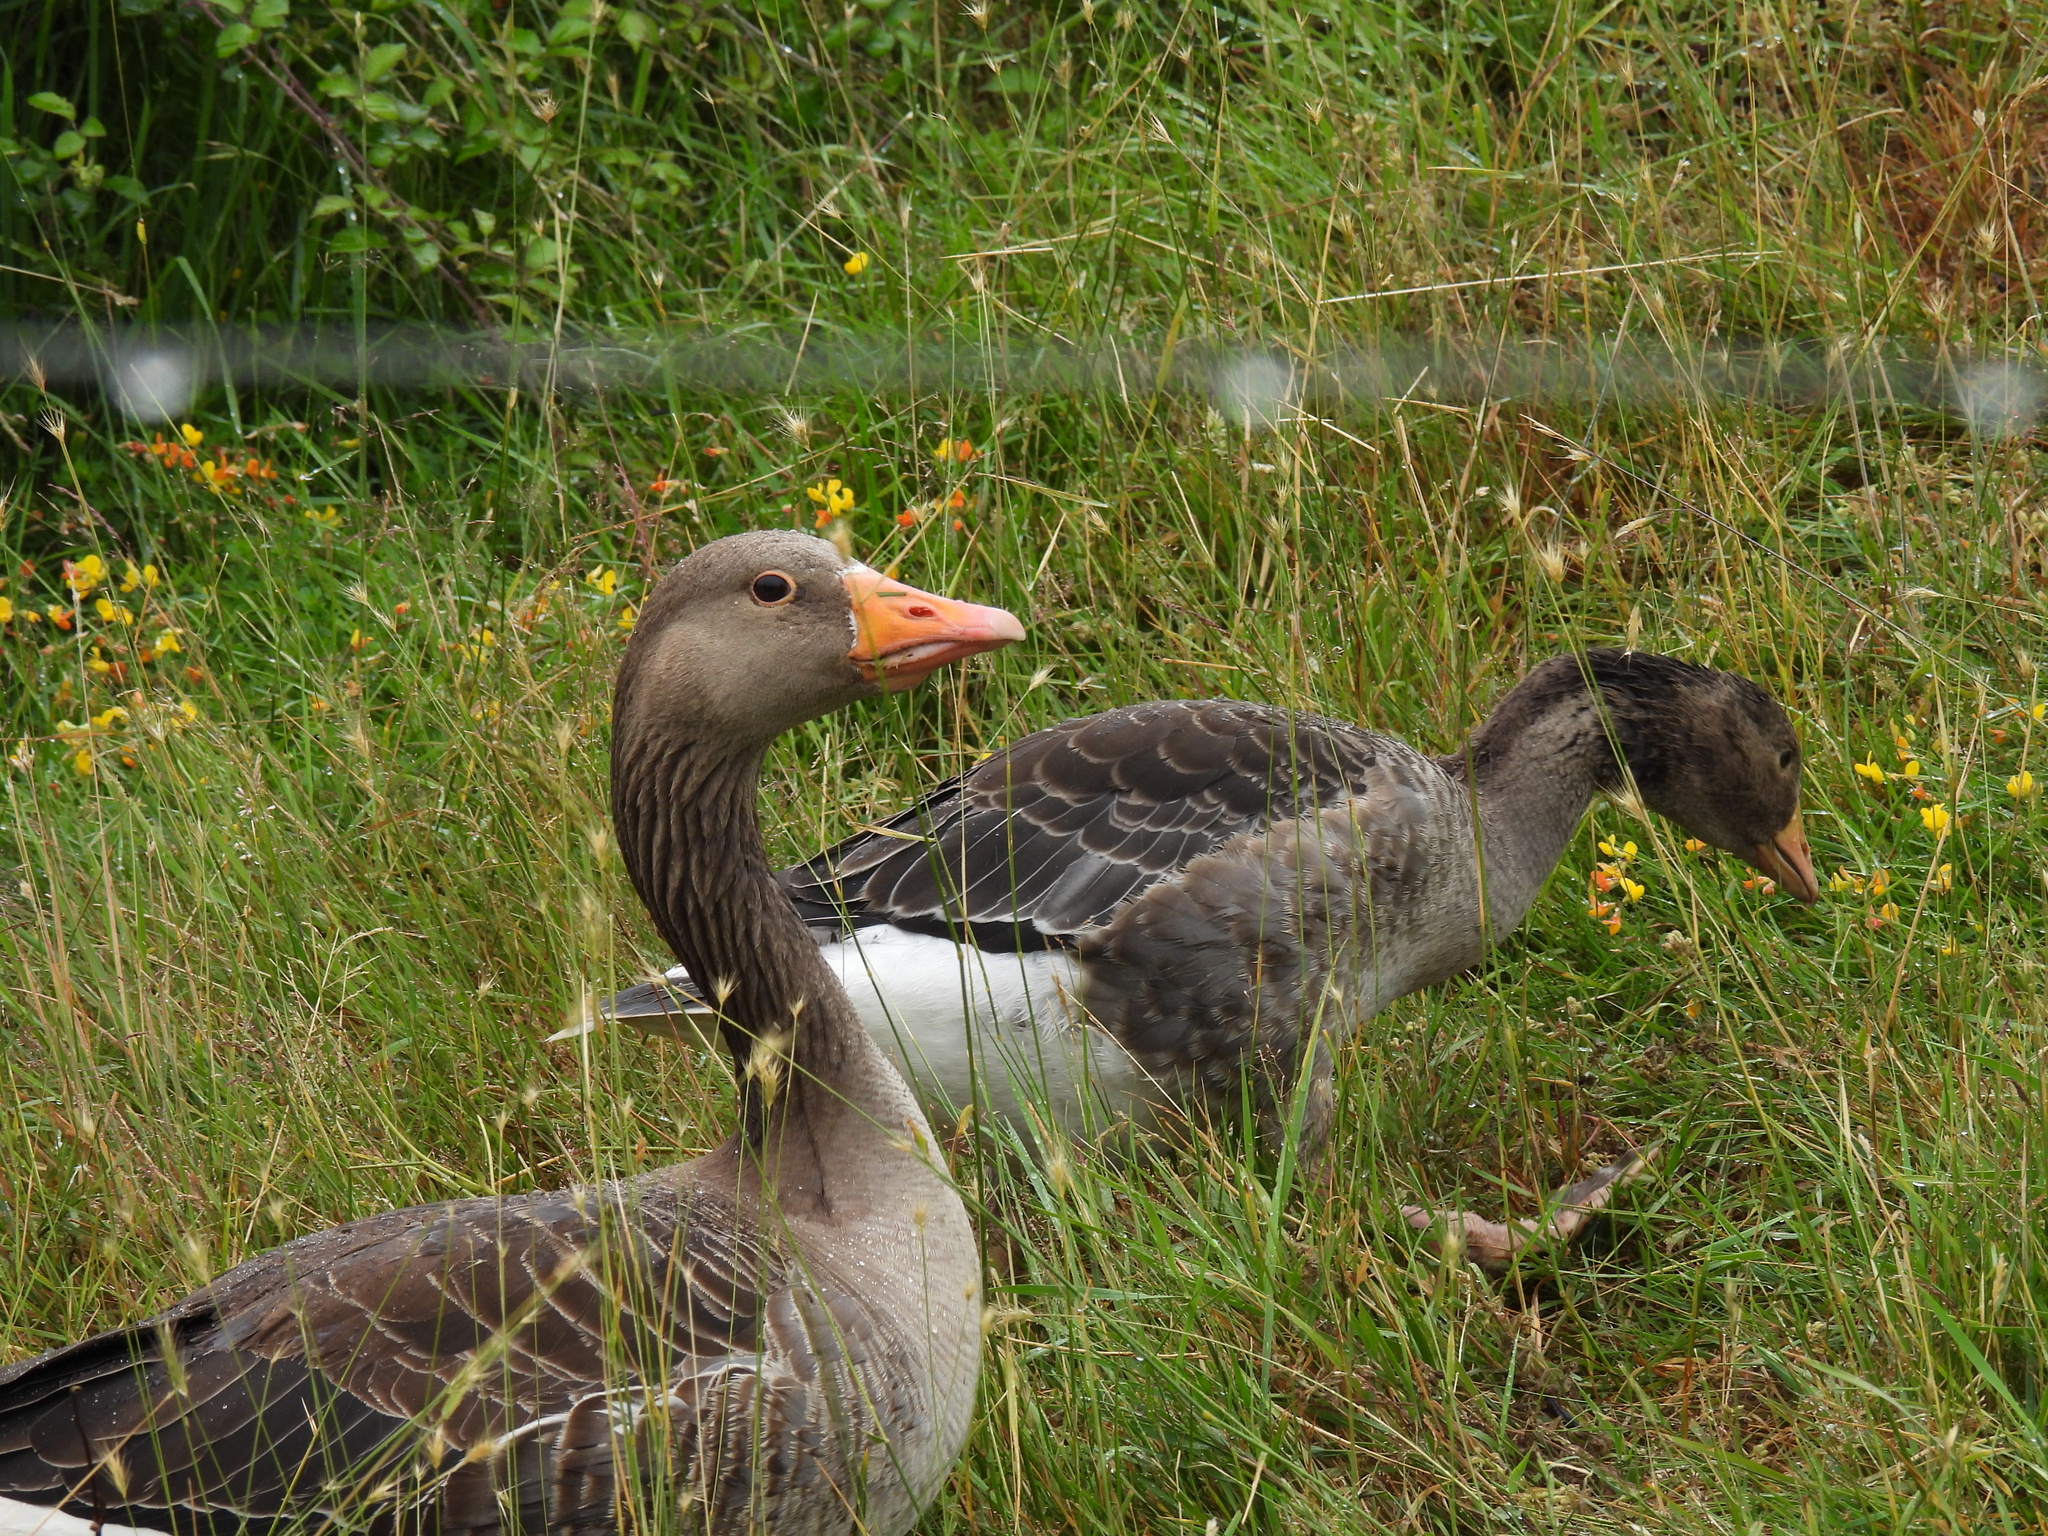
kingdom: Animalia
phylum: Chordata
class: Aves
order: Anseriformes
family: Anatidae
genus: Anser
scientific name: Anser anser
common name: Greylag goose
